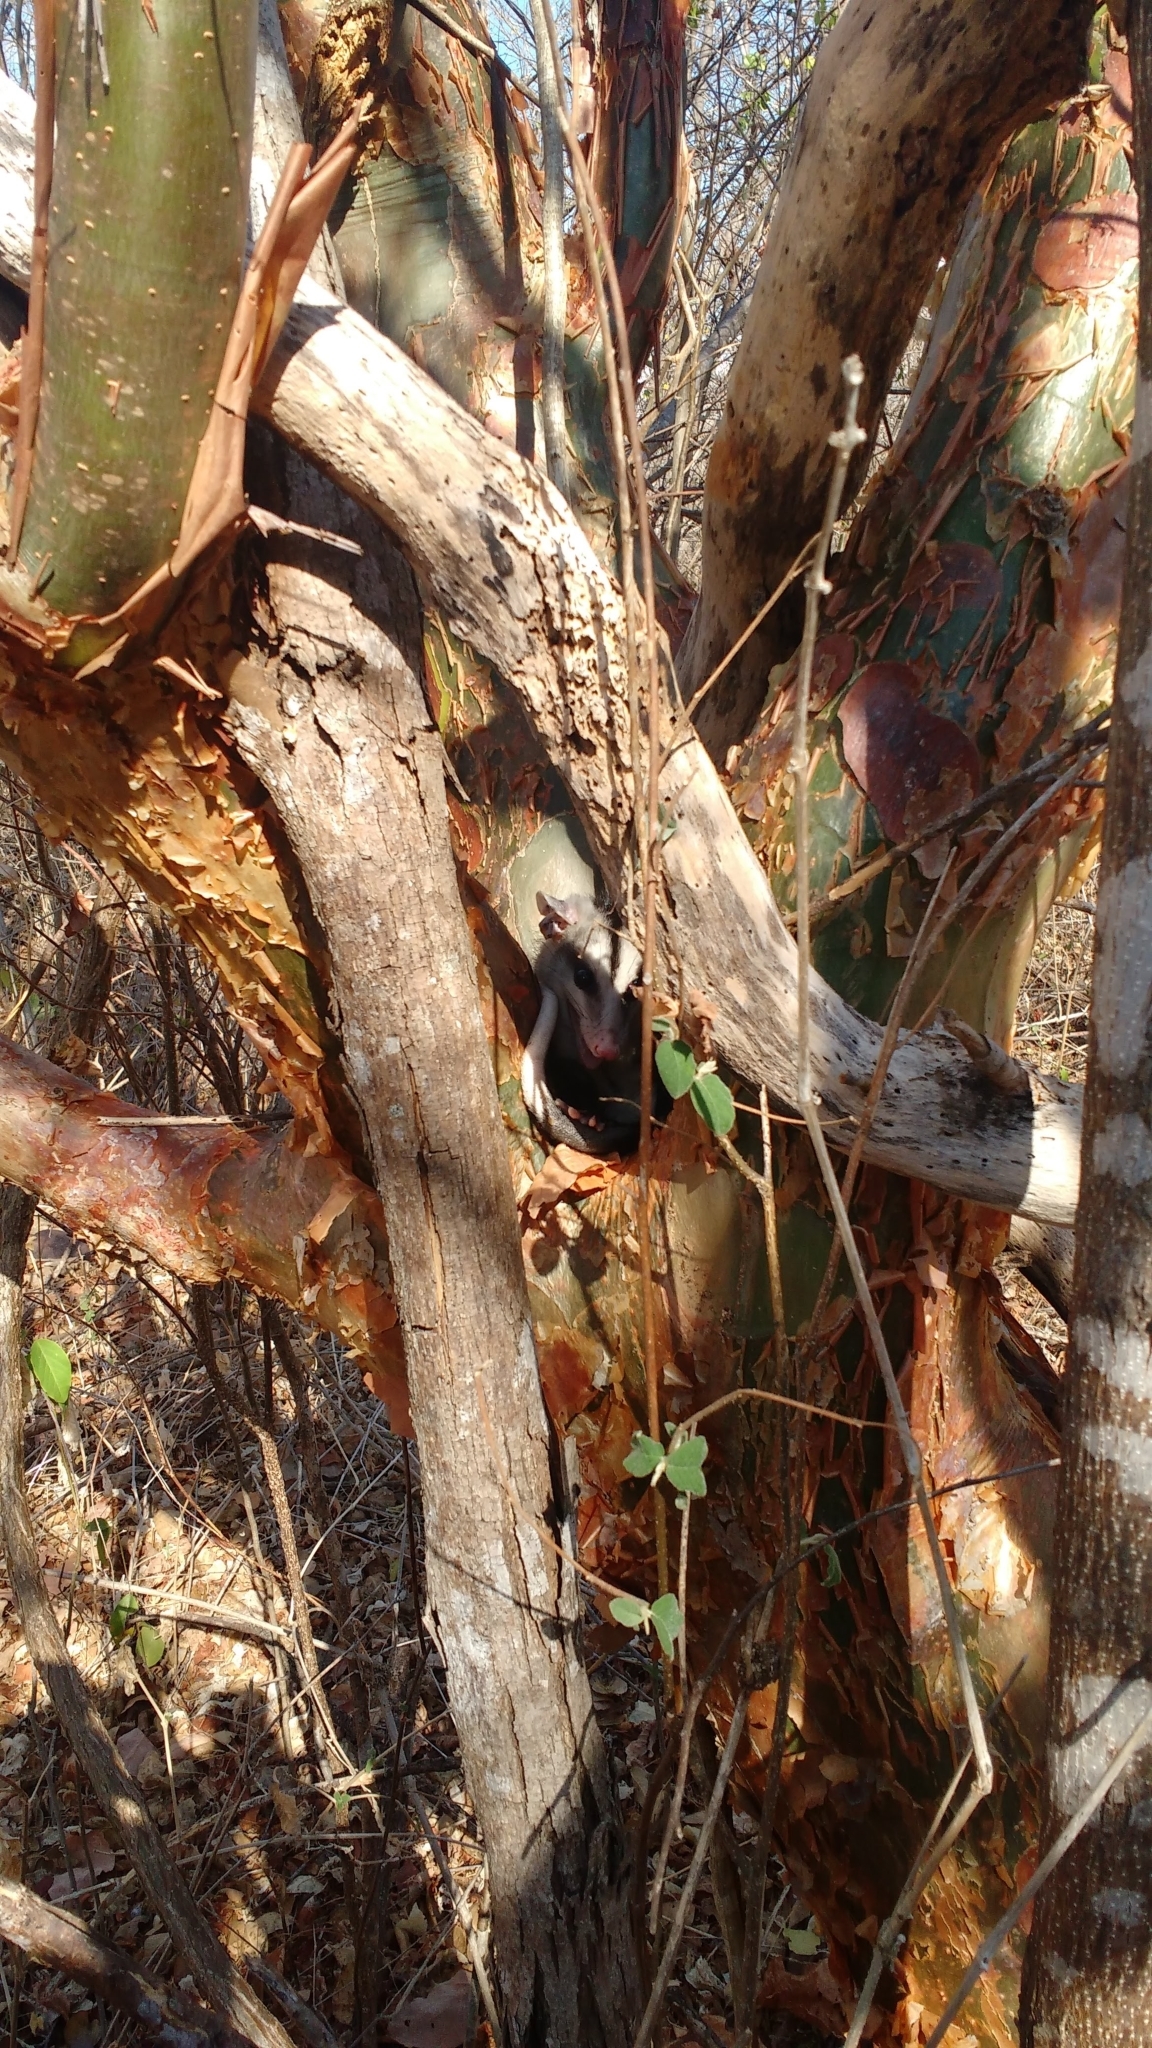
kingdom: Animalia
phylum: Chordata
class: Mammalia
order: Didelphimorphia
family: Didelphidae
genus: Didelphis
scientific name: Didelphis albiventris
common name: White-eared opossum
